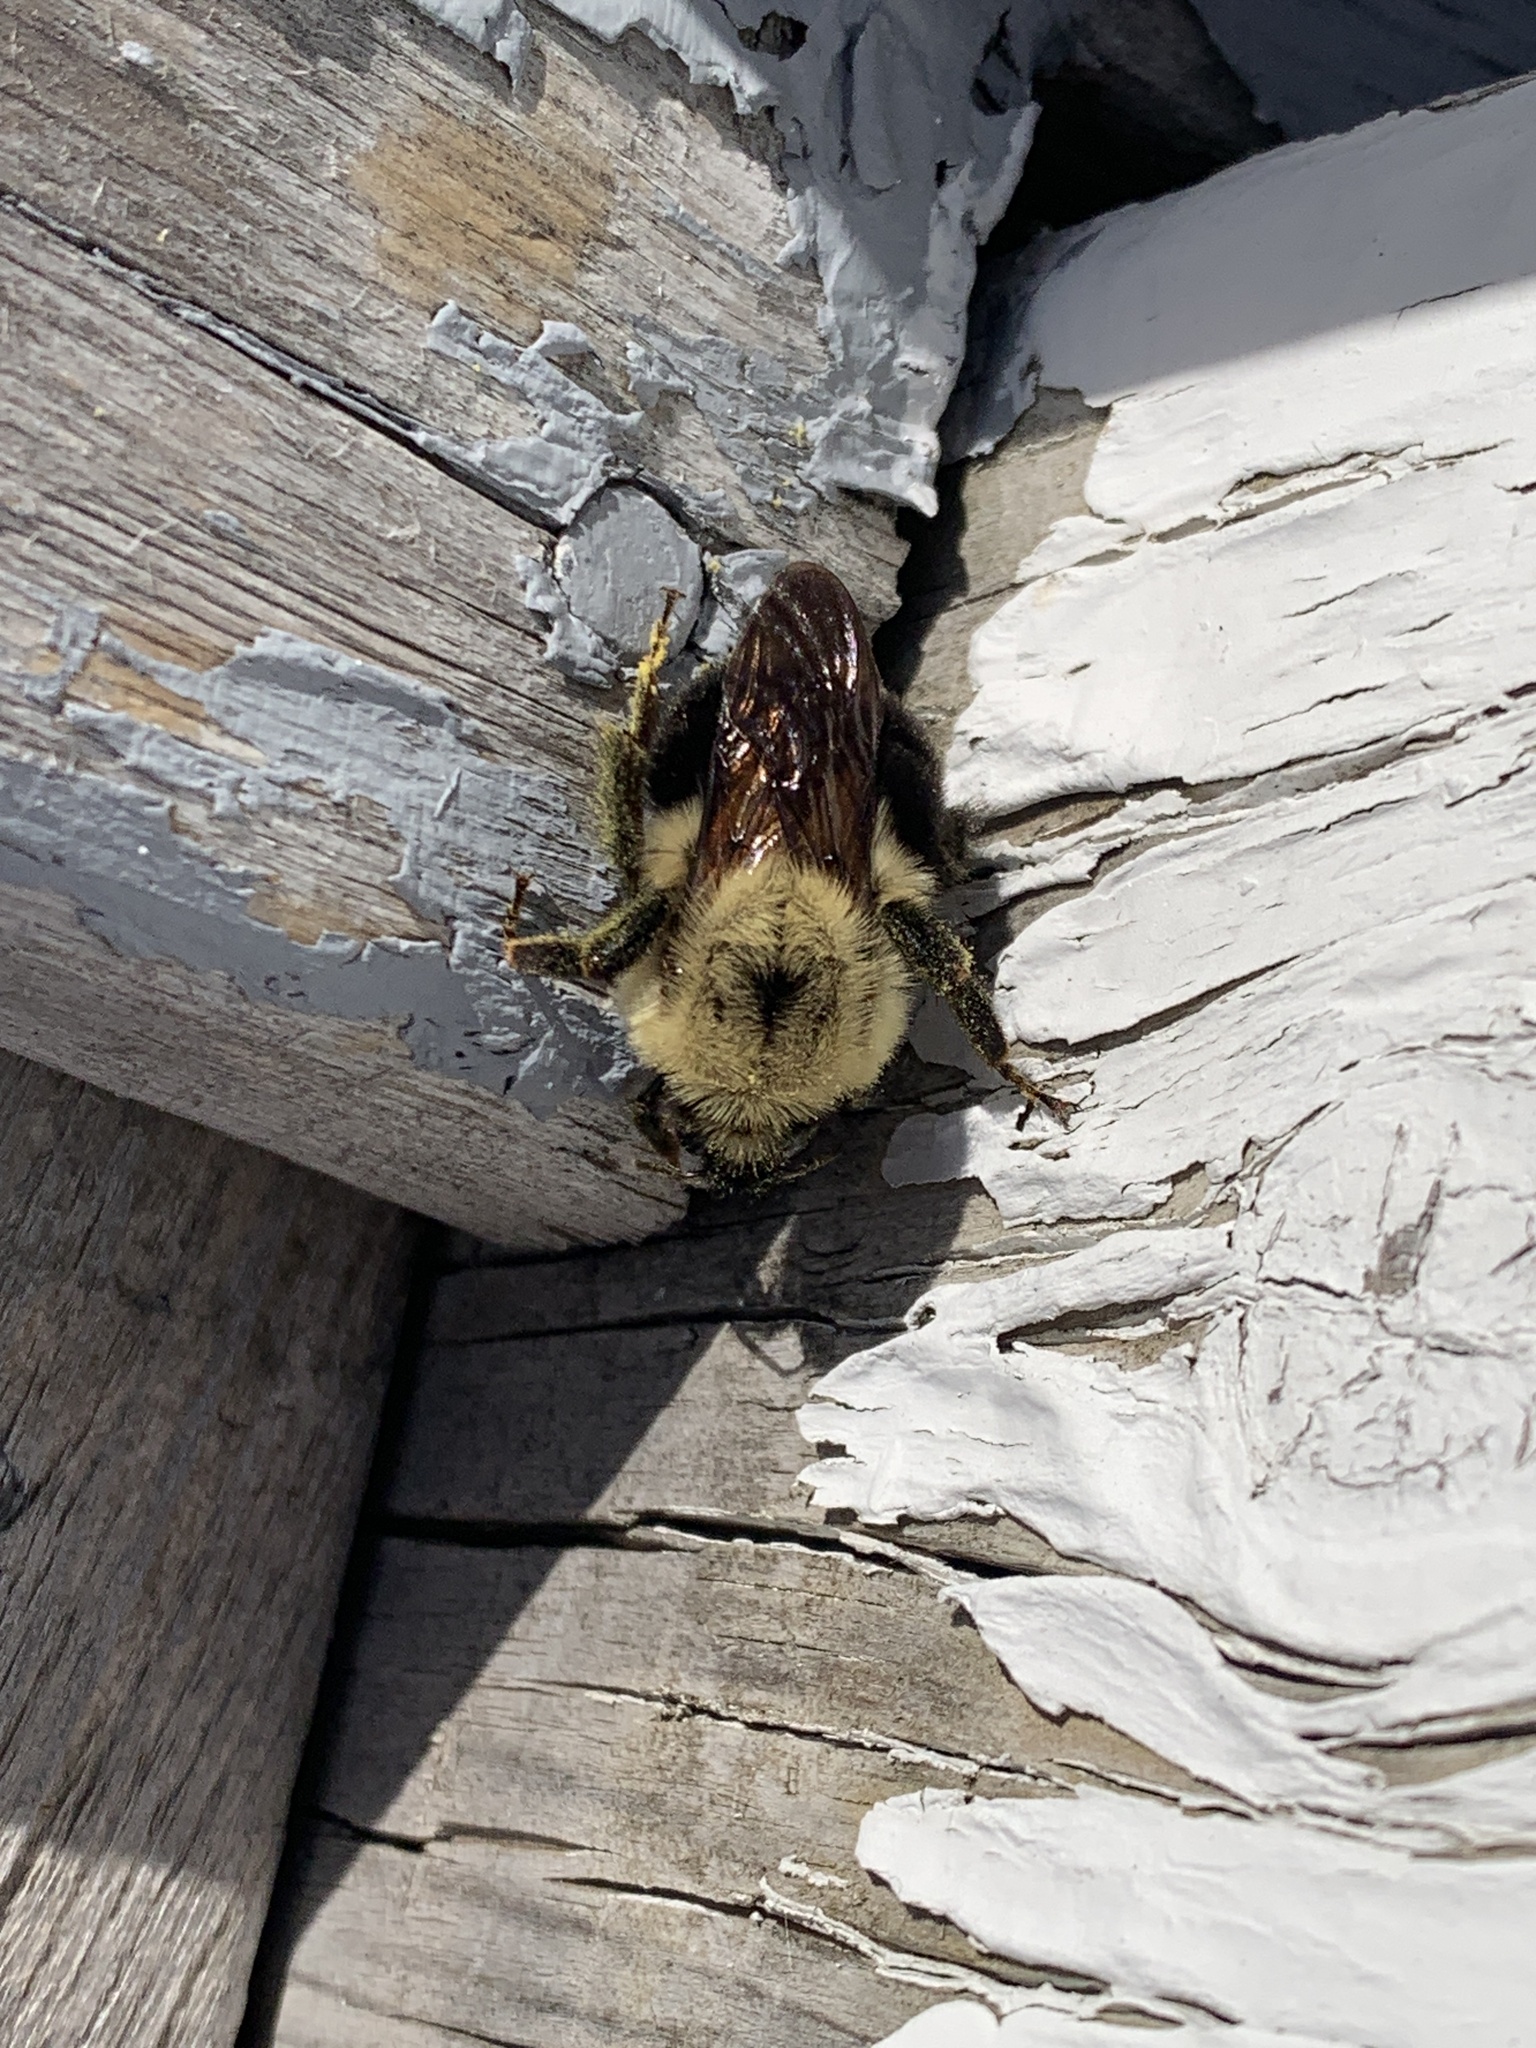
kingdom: Animalia
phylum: Arthropoda
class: Insecta
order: Hymenoptera
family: Apidae
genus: Bombus
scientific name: Bombus bimaculatus
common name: Two-spotted bumble bee
